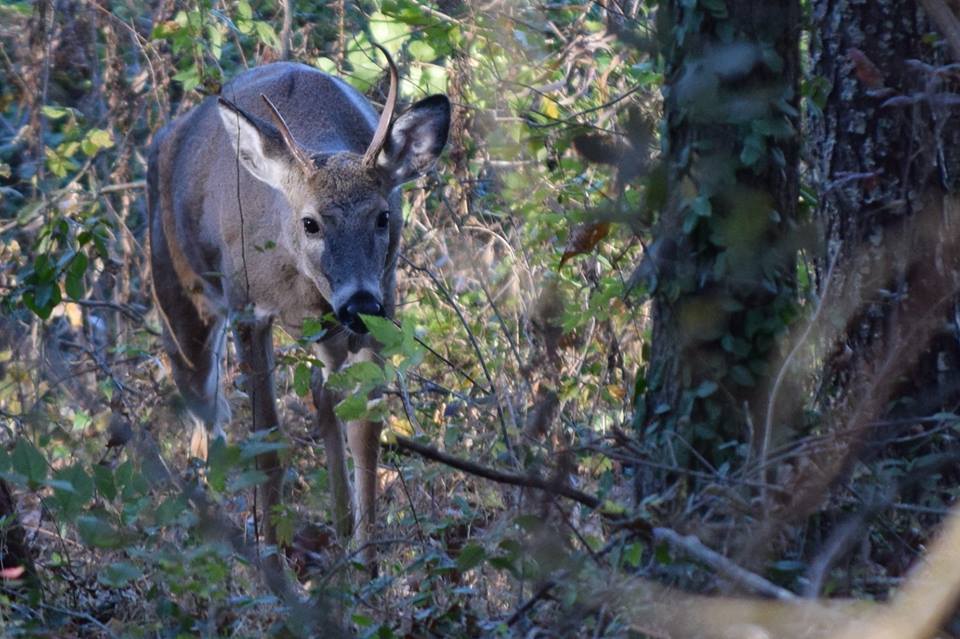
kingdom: Animalia
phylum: Chordata
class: Mammalia
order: Artiodactyla
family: Cervidae
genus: Odocoileus
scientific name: Odocoileus virginianus
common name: White-tailed deer
